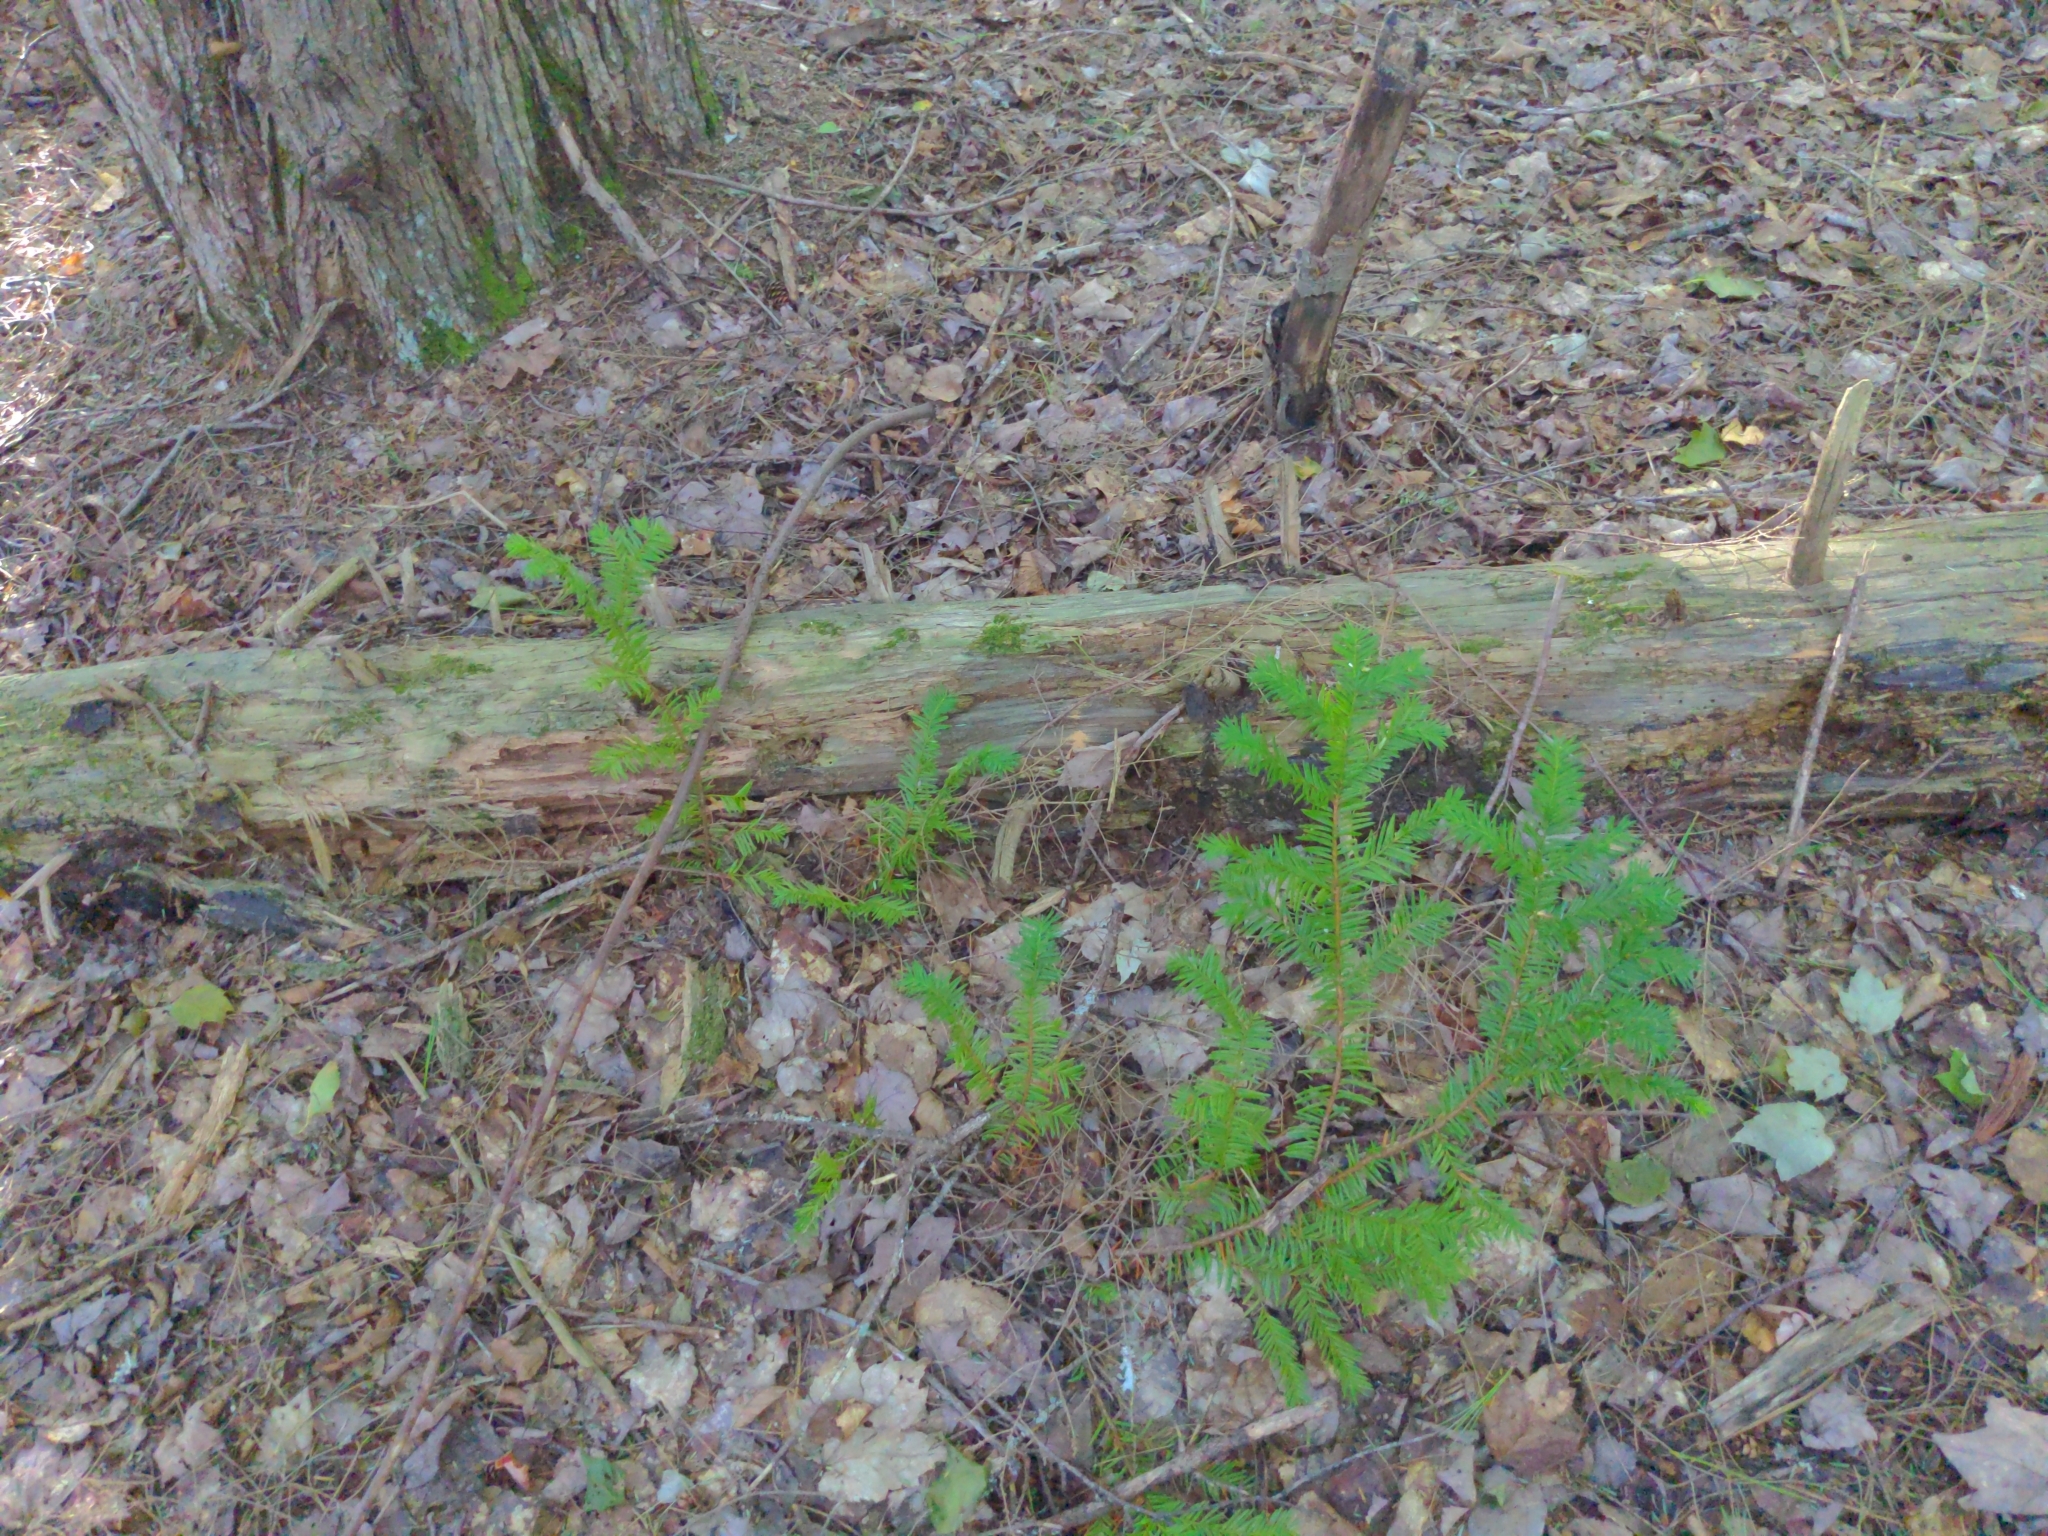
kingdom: Plantae
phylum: Tracheophyta
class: Pinopsida
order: Pinales
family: Taxaceae
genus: Taxus
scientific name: Taxus canadensis
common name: American yew
